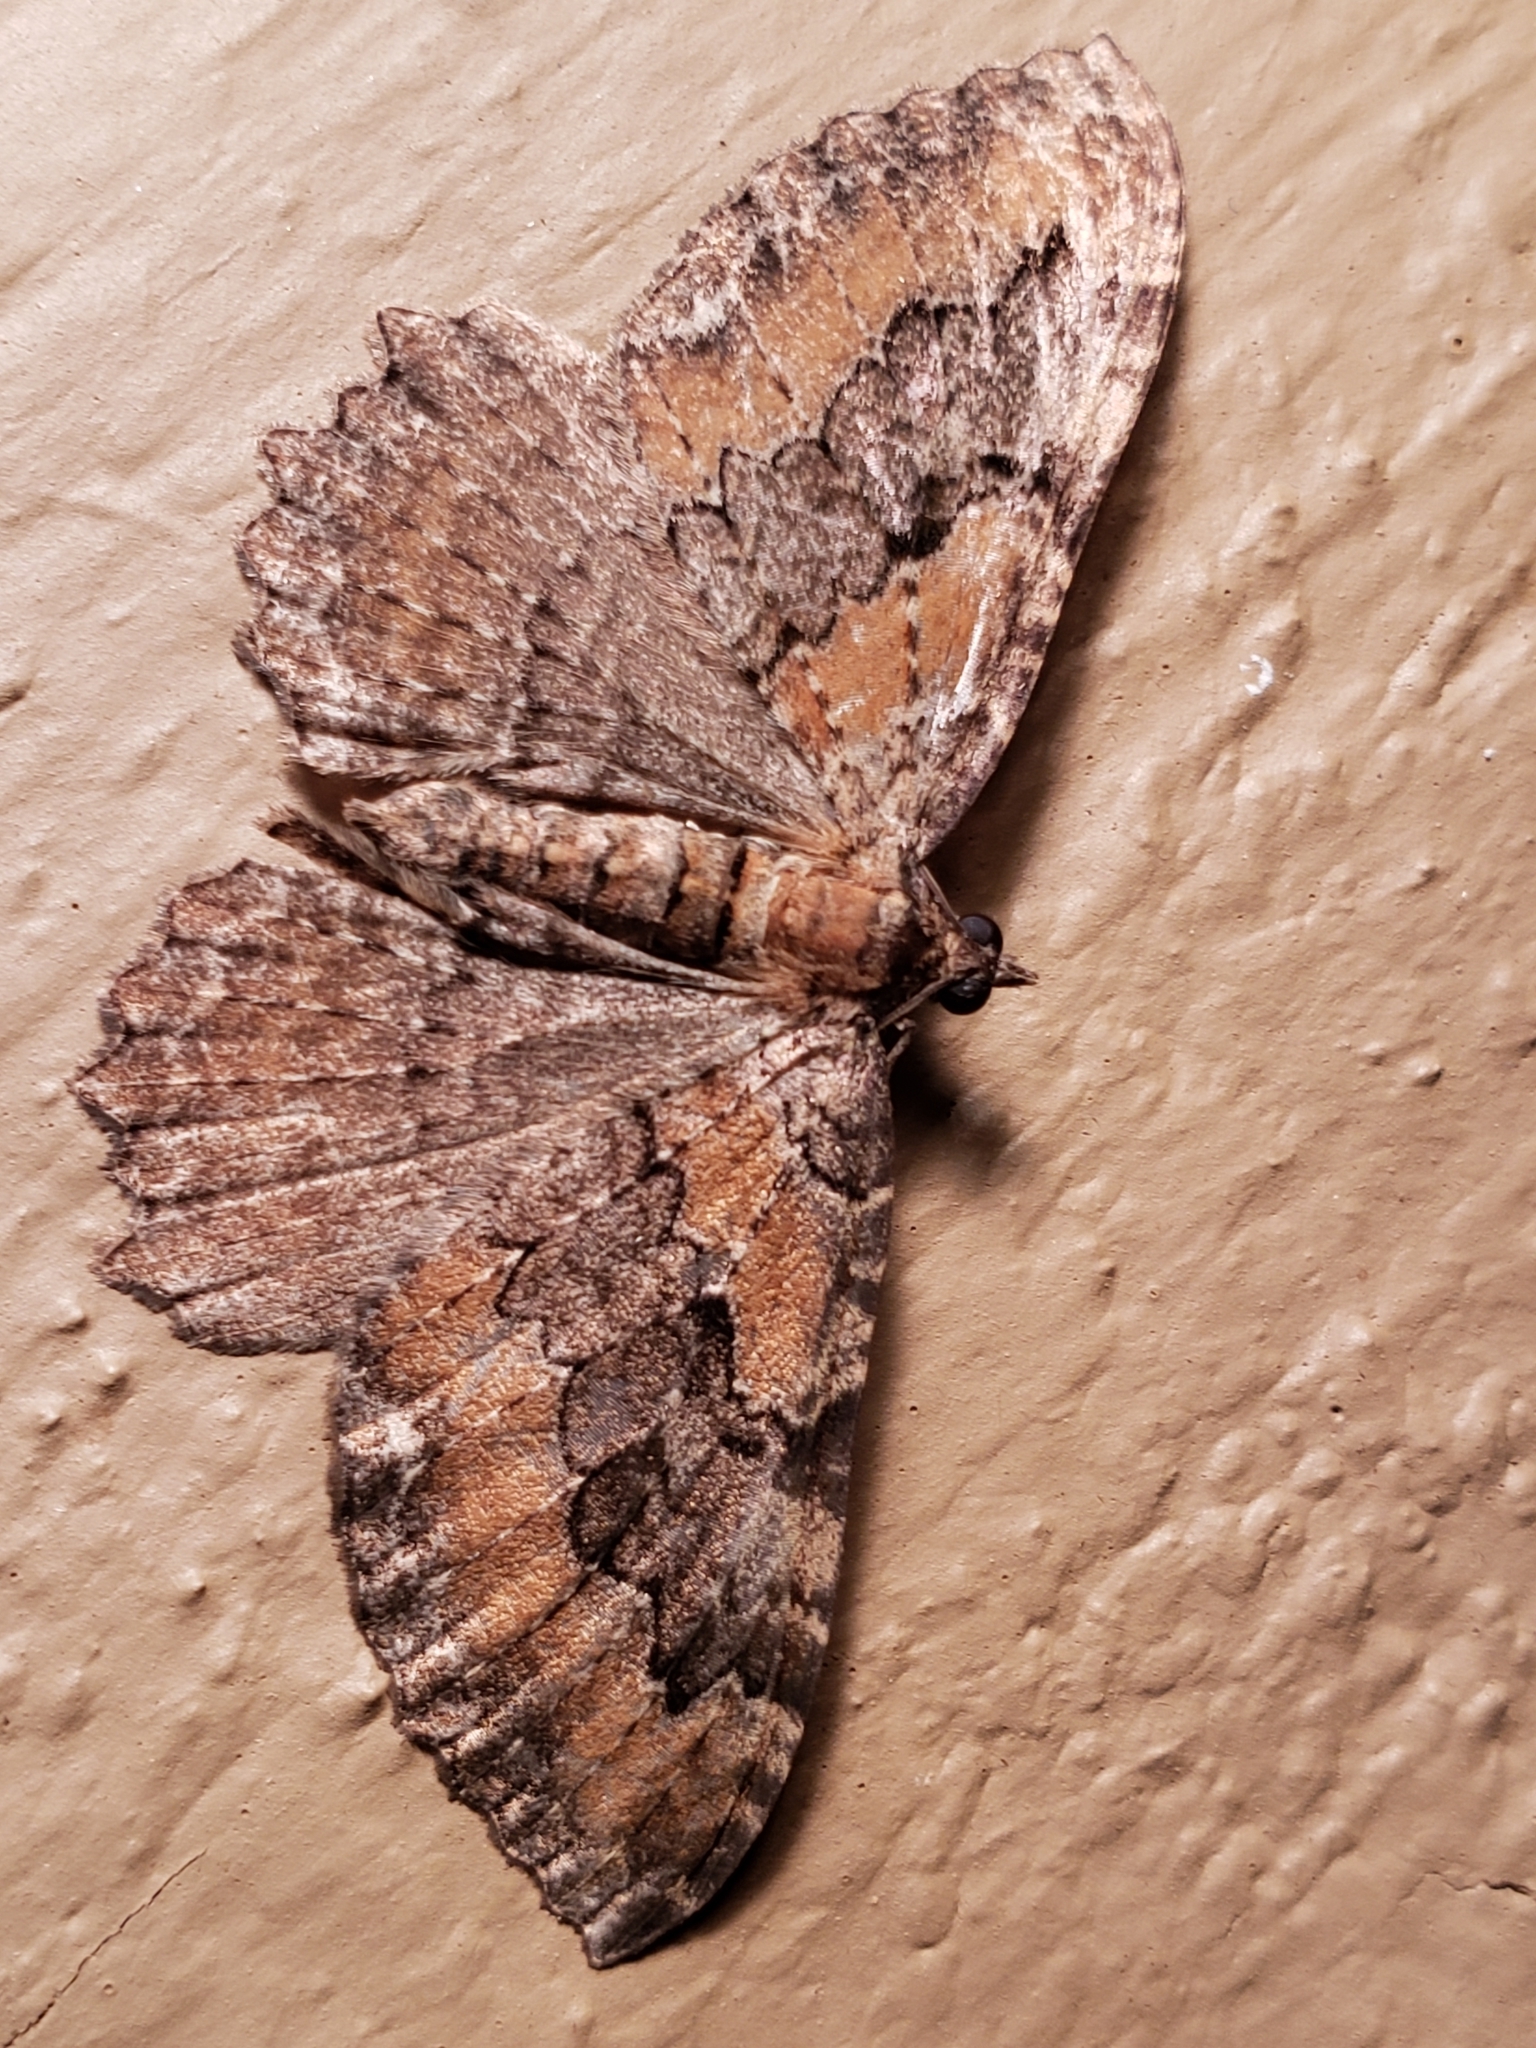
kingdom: Animalia
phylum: Arthropoda
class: Insecta
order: Lepidoptera
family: Geometridae
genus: Rheumaptera
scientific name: Rheumaptera
